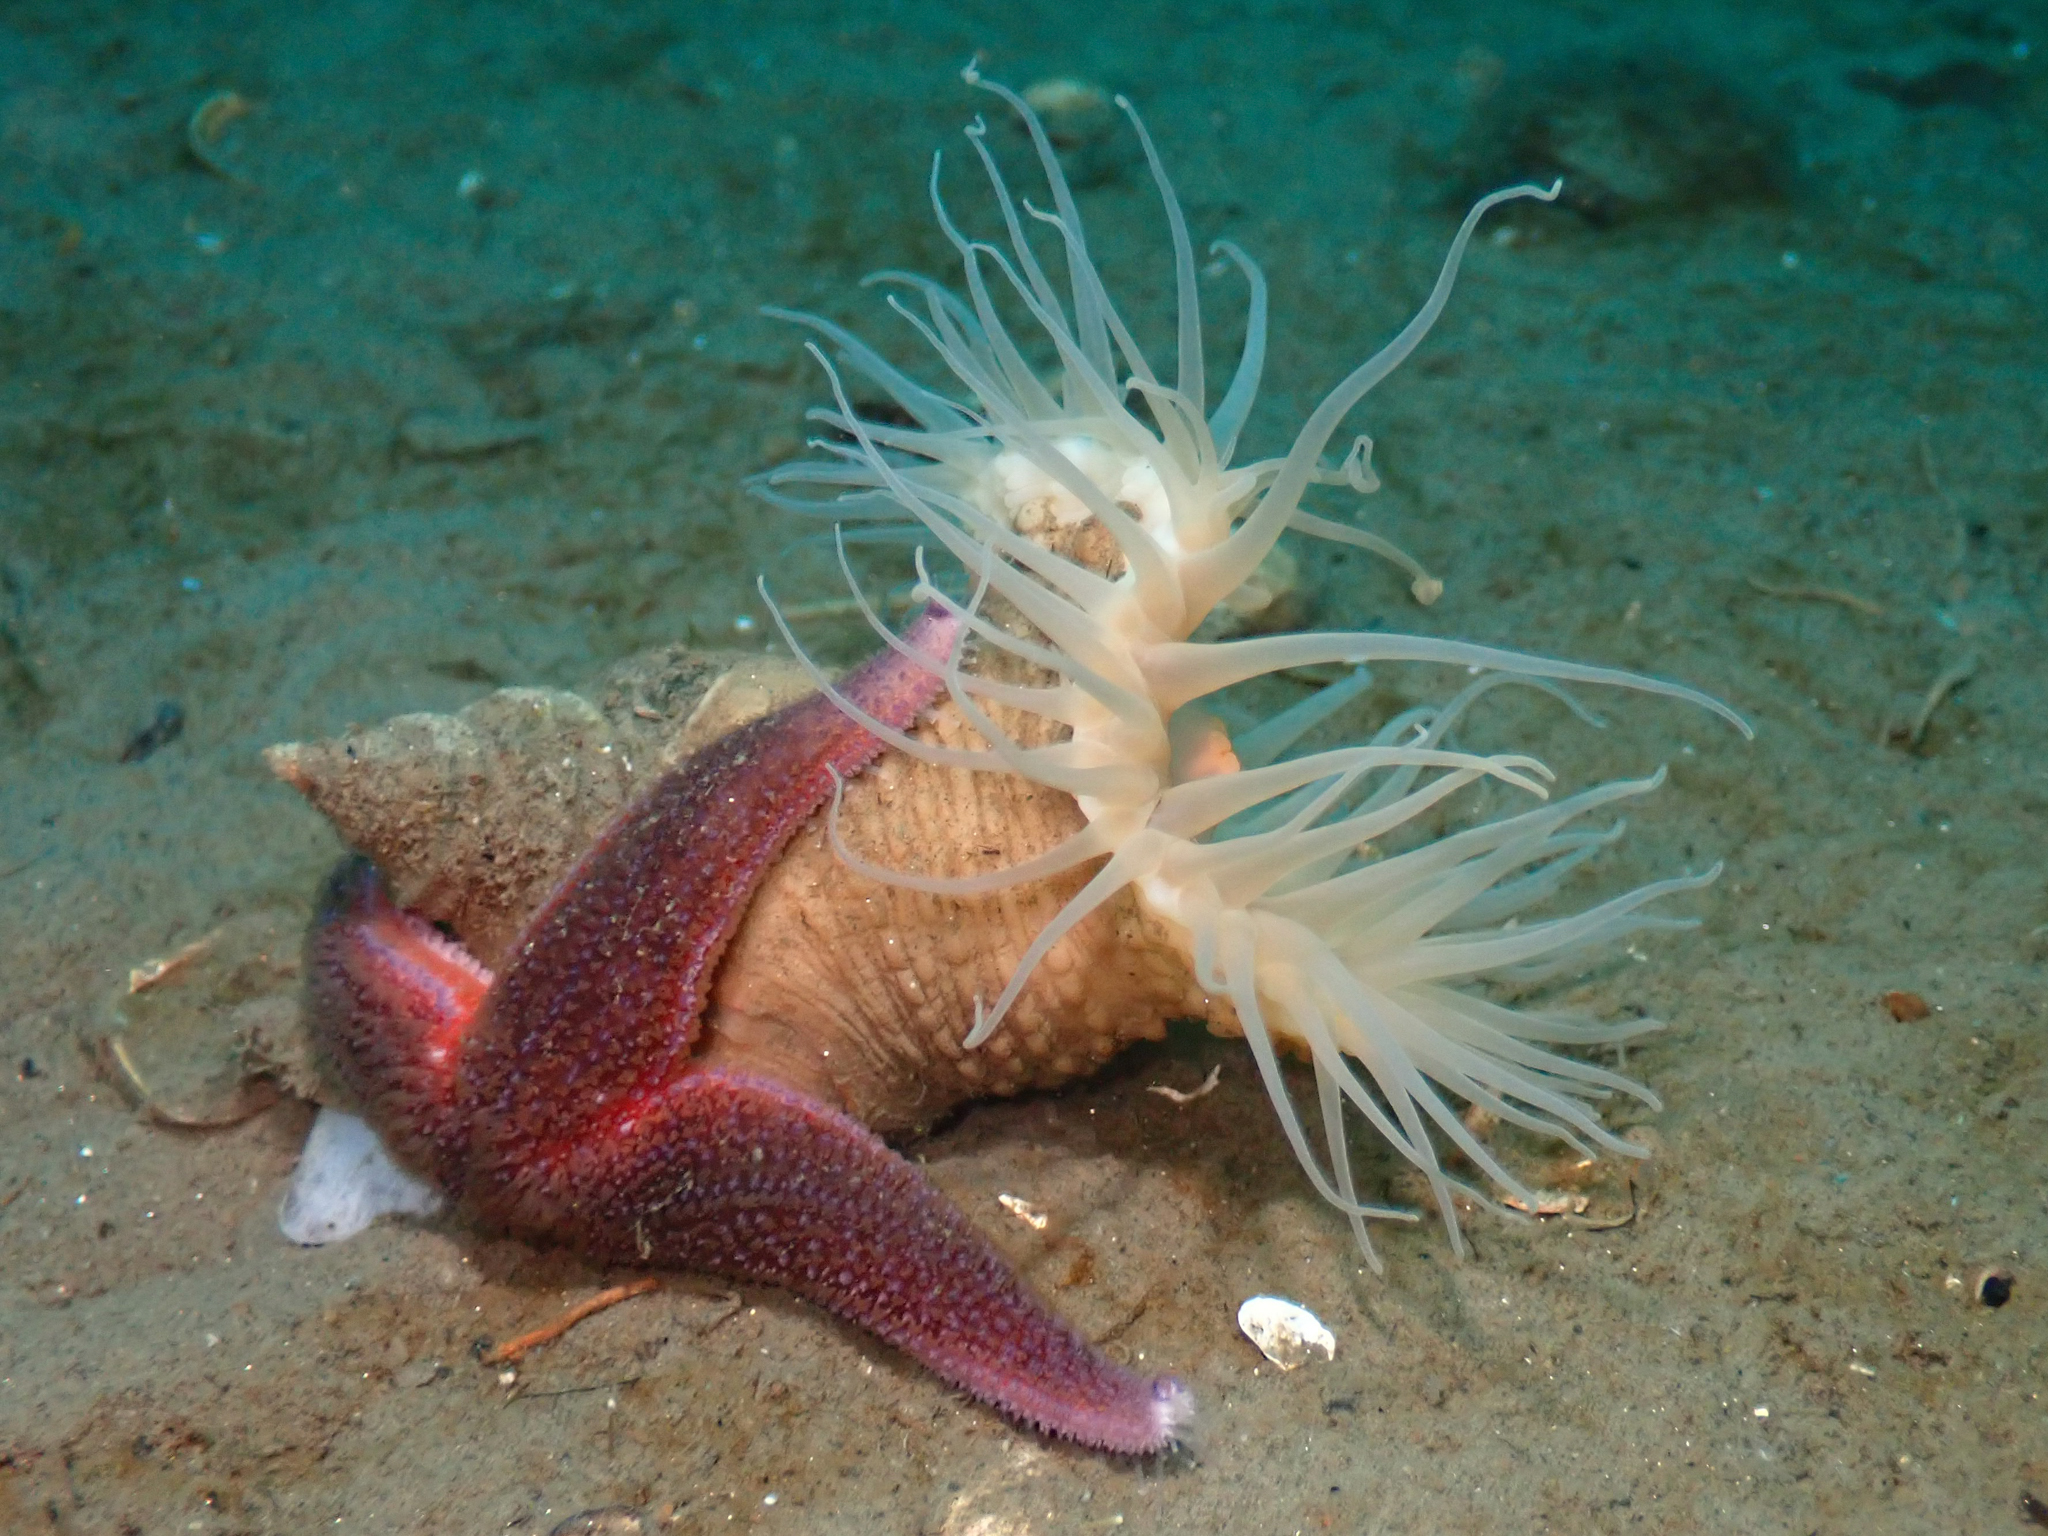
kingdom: Animalia
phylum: Echinodermata
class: Asteroidea
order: Forcipulatida
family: Asteriidae
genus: Asterias
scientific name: Asterias rubens
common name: Common starfish
